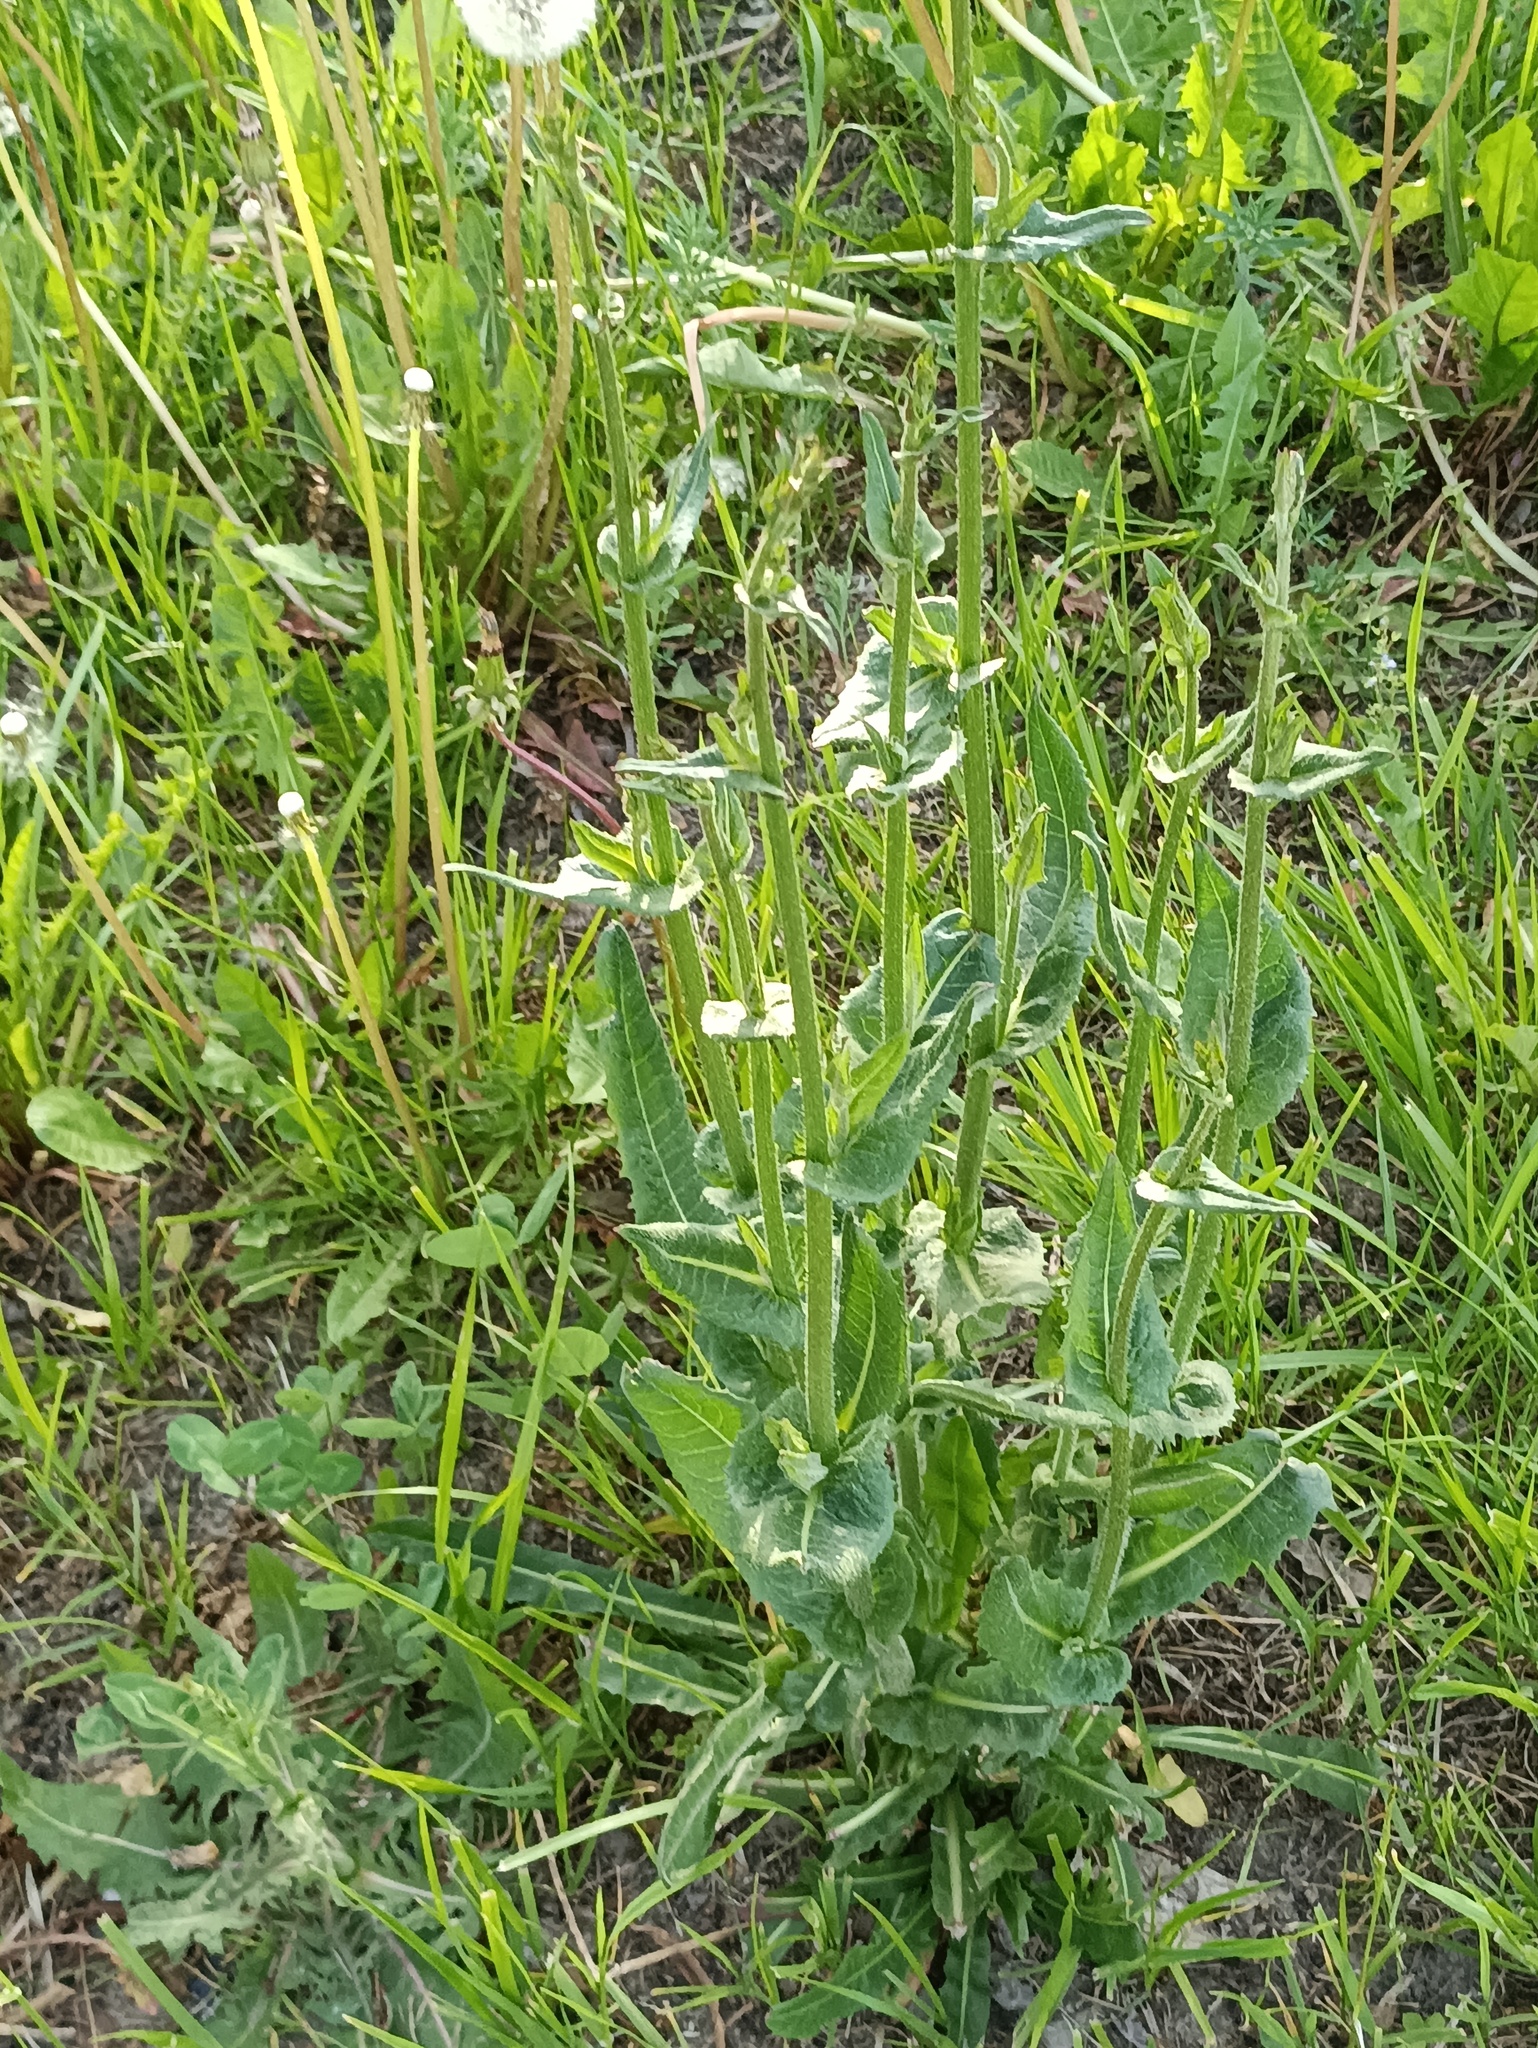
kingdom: Plantae
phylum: Tracheophyta
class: Magnoliopsida
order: Asterales
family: Asteraceae
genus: Cichorium
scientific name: Cichorium intybus
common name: Chicory
